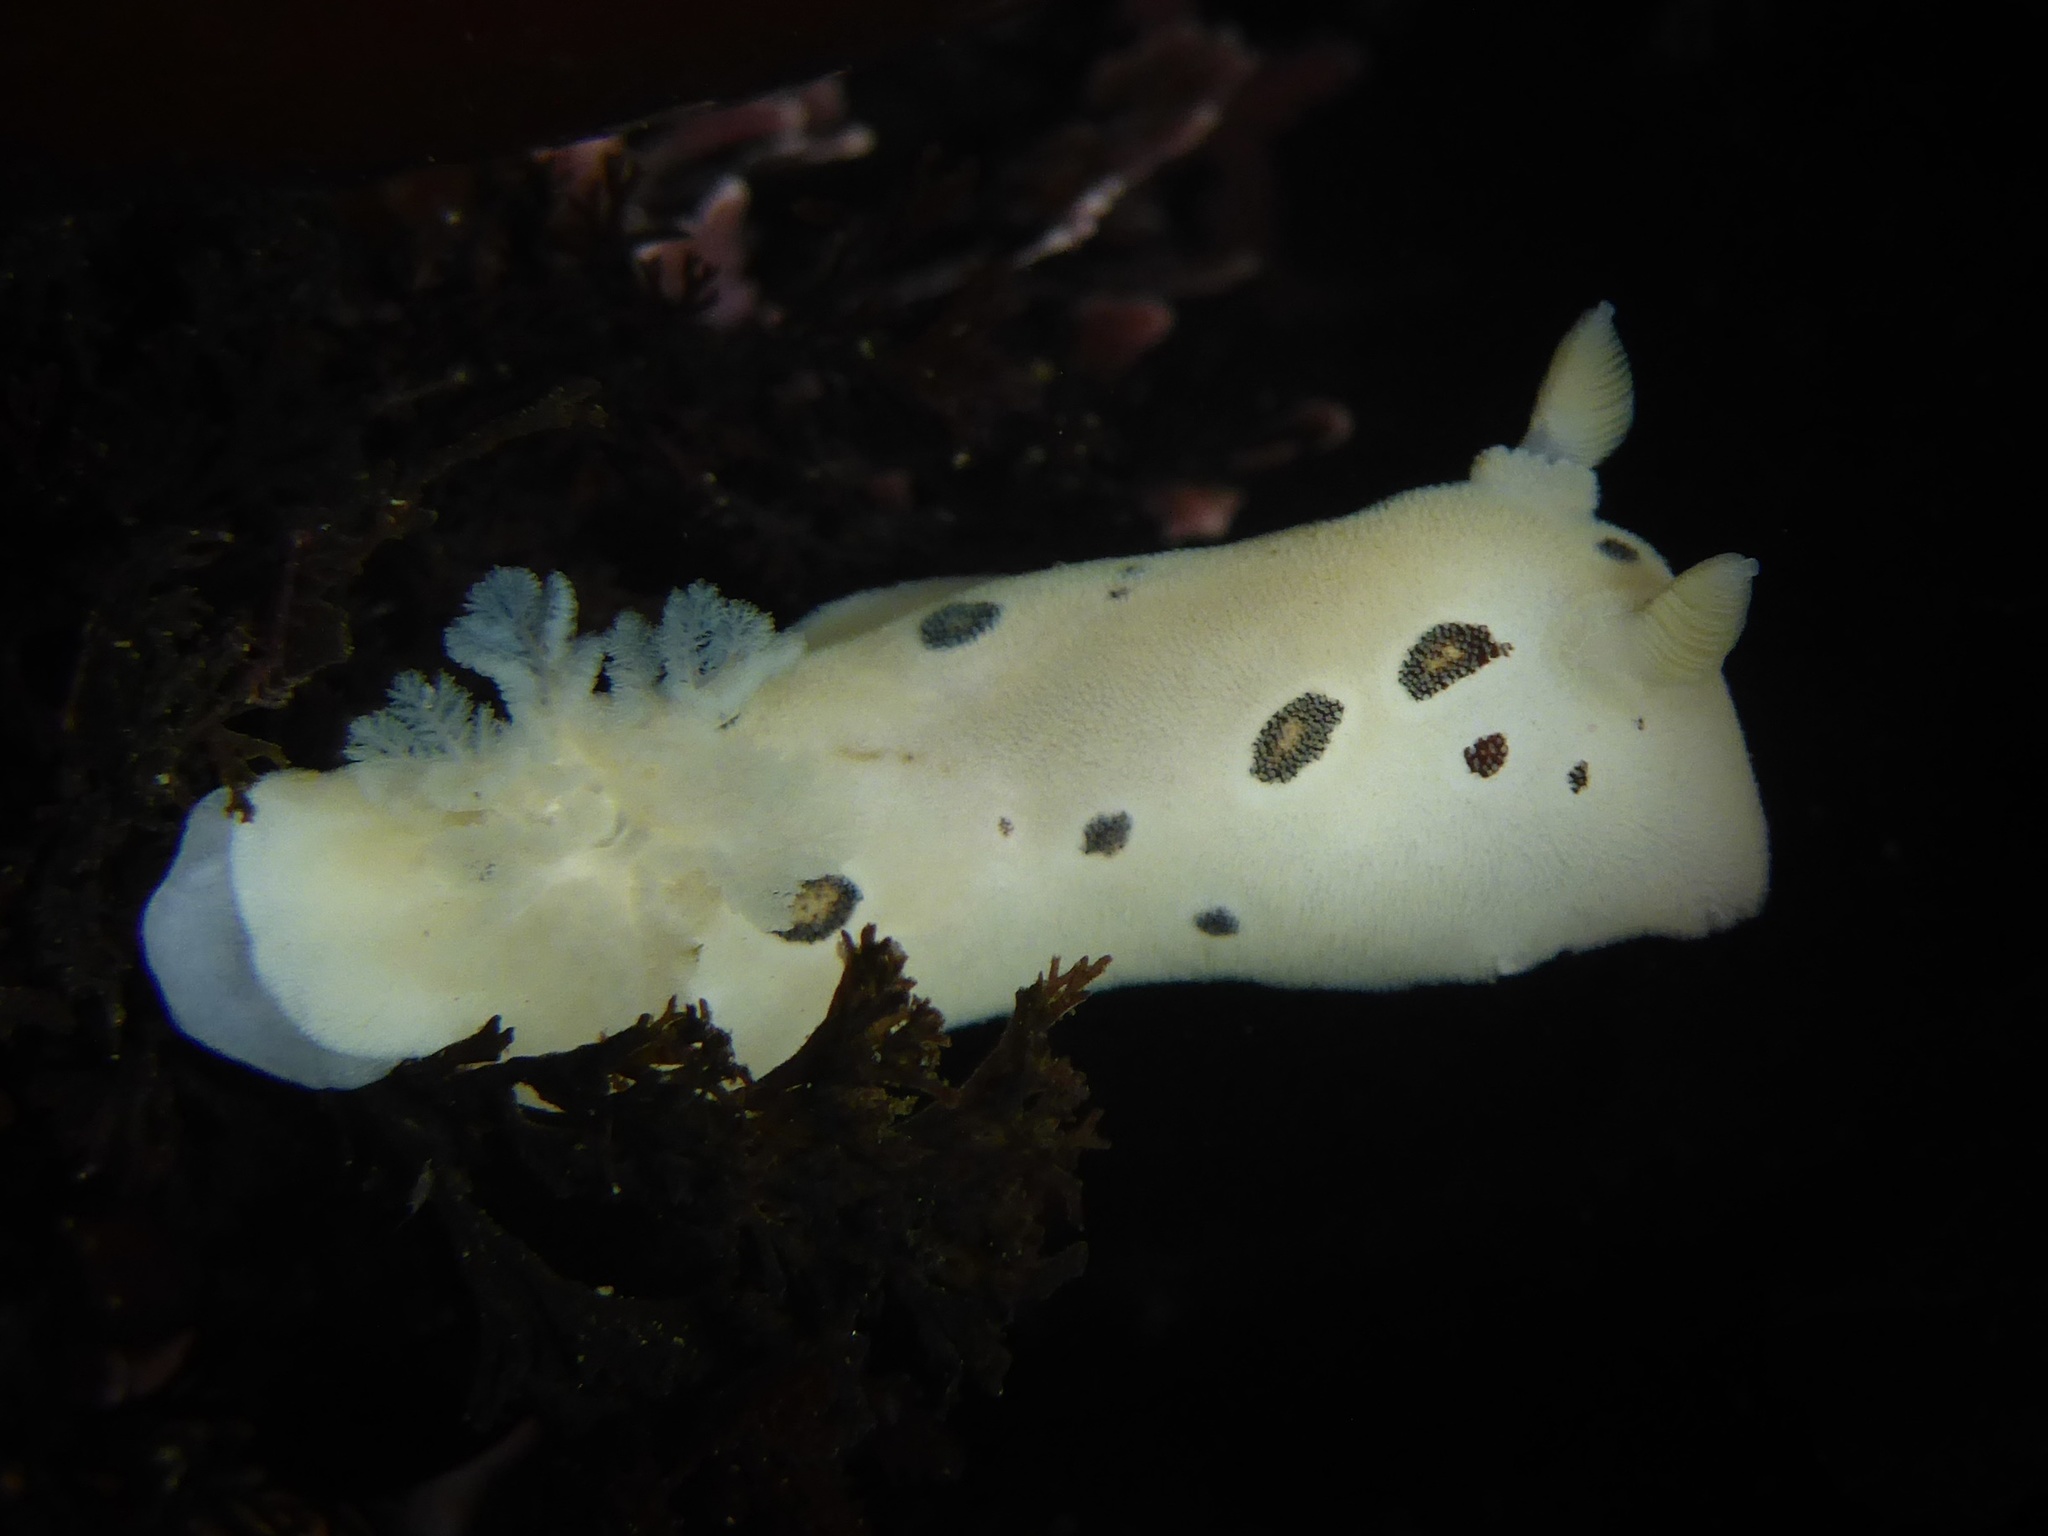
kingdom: Animalia
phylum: Mollusca
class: Gastropoda
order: Nudibranchia
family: Discodorididae
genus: Diaulula
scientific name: Diaulula sandiegensis
